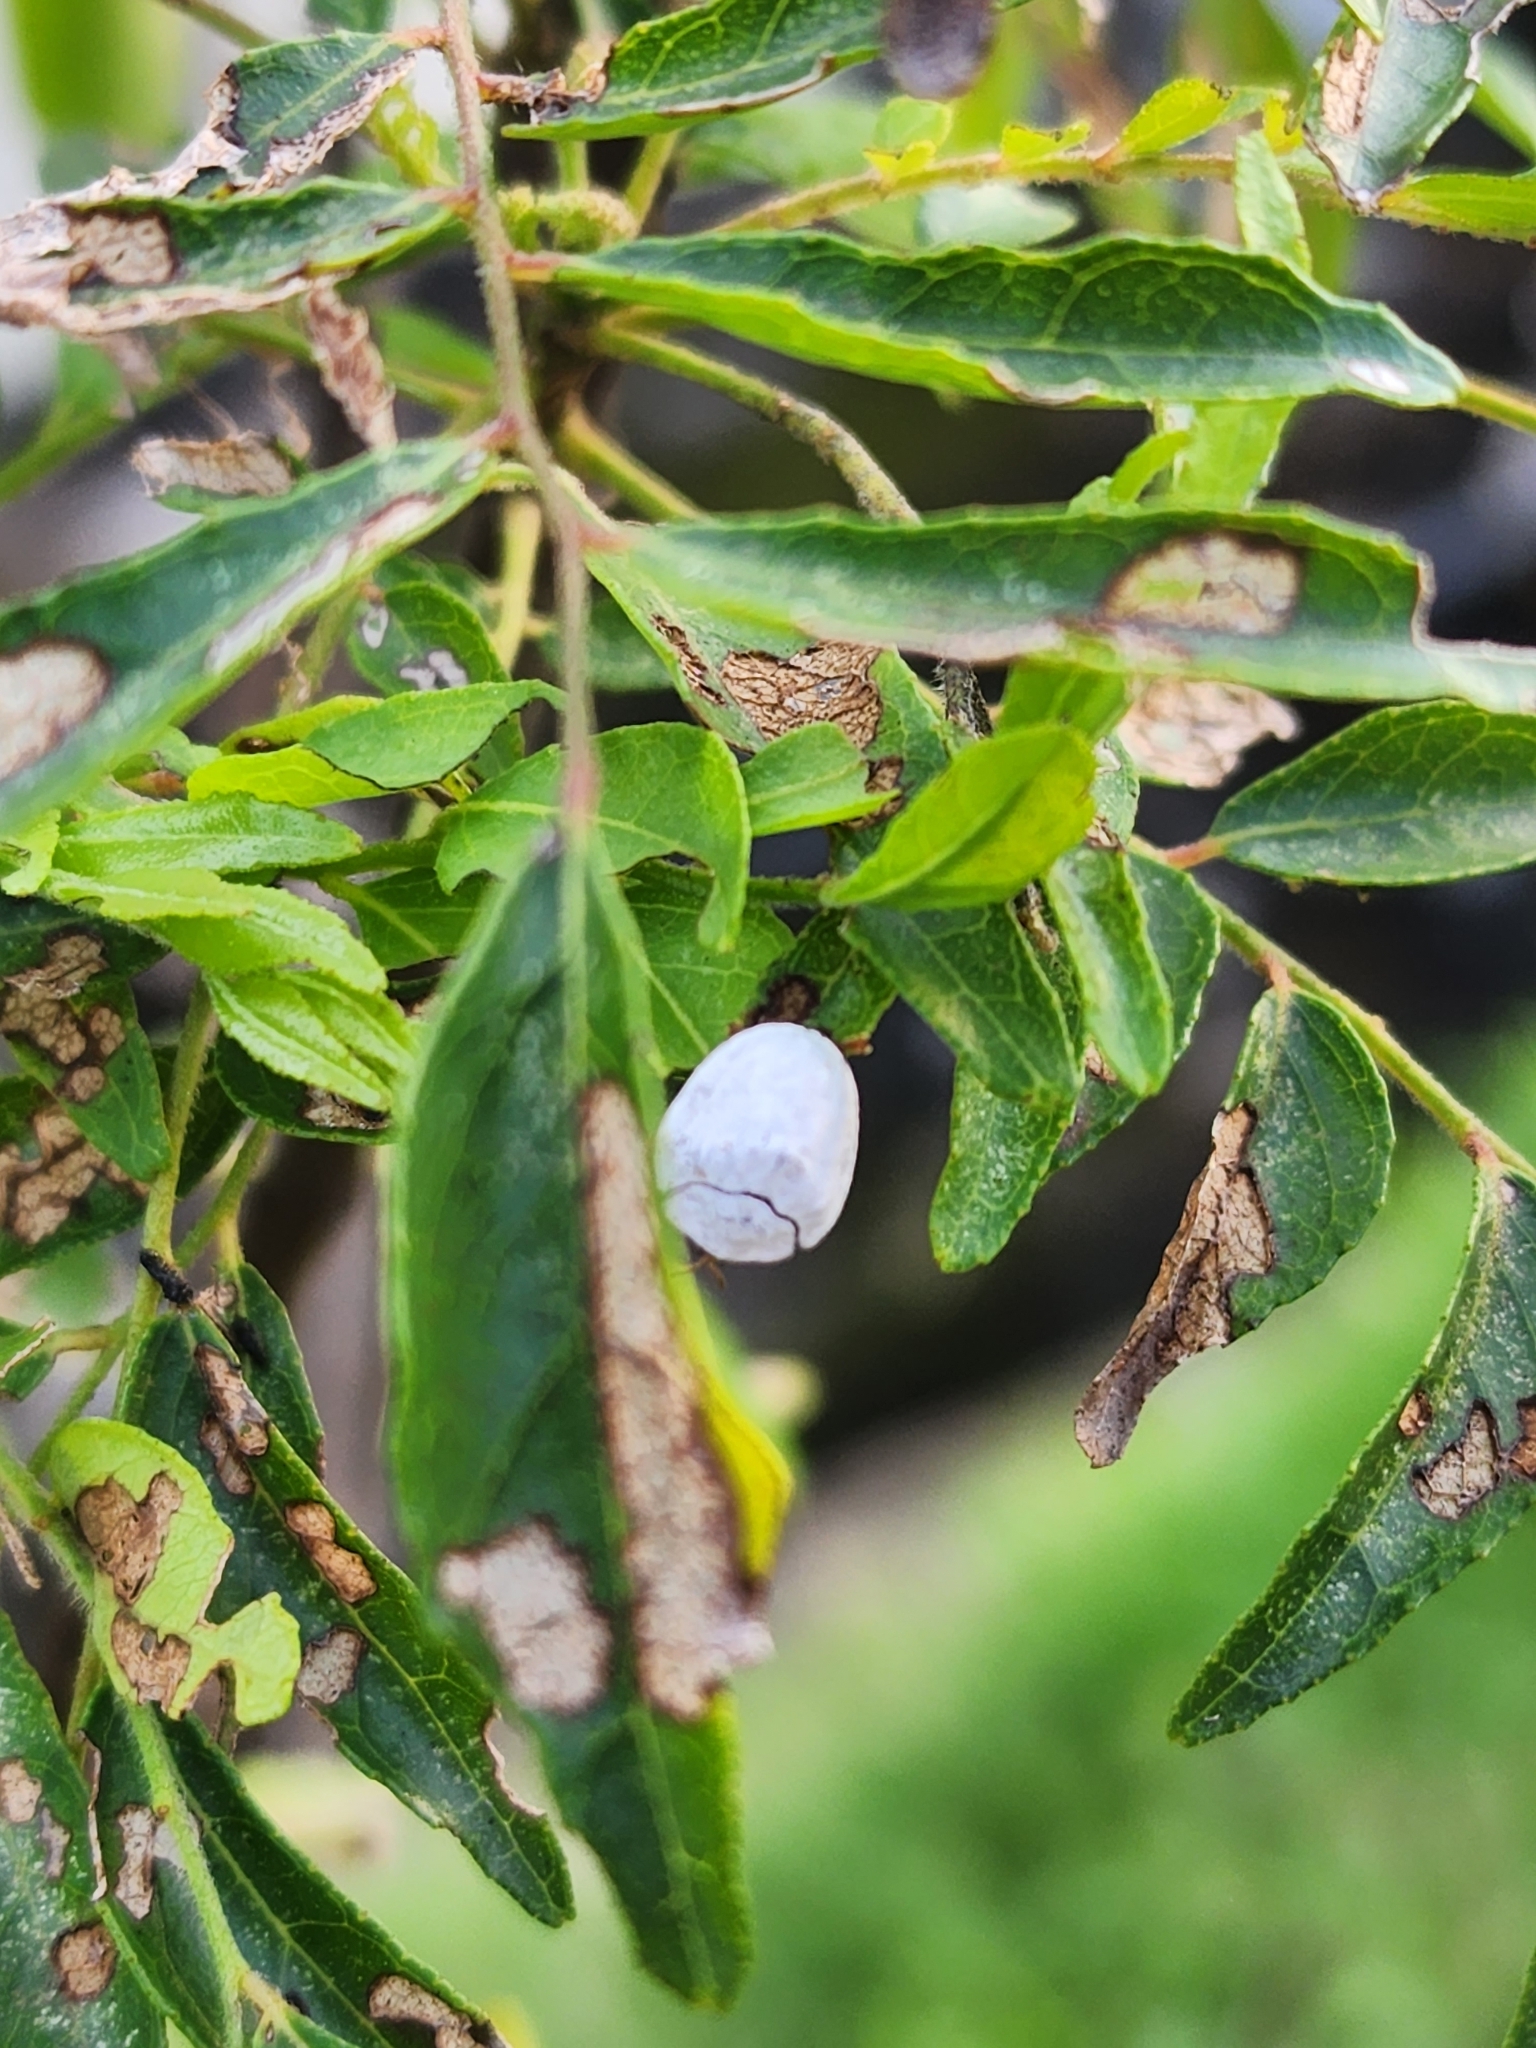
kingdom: Animalia
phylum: Arthropoda
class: Insecta
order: Coleoptera
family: Chrysomelidae
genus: Silana
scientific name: Silana farinosa
